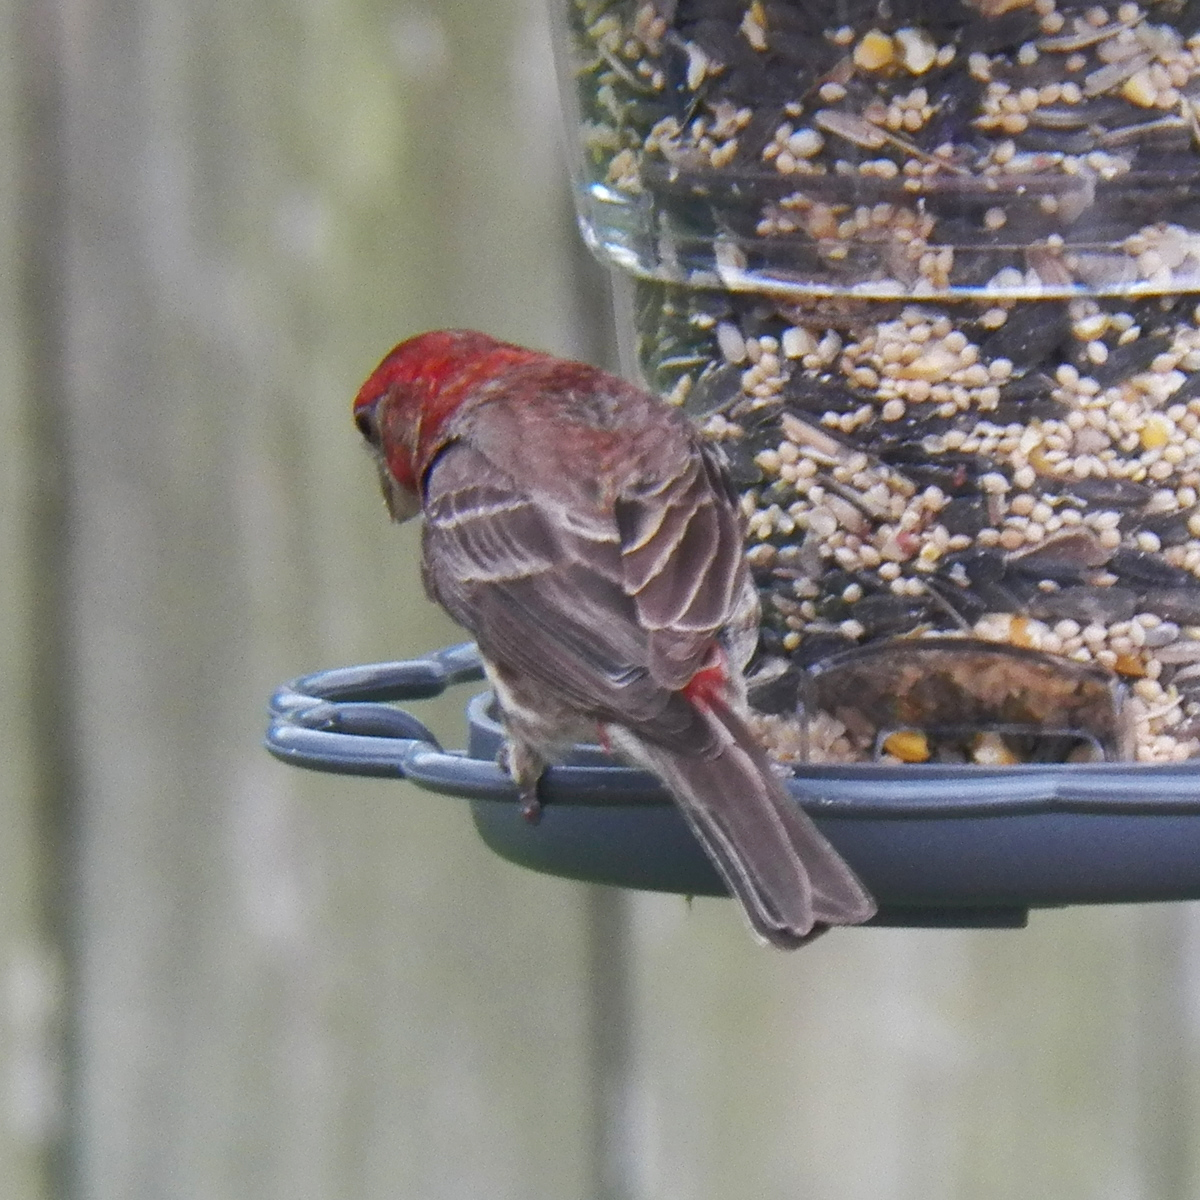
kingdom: Animalia
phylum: Chordata
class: Aves
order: Passeriformes
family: Fringillidae
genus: Haemorhous
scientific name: Haemorhous mexicanus
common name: House finch
